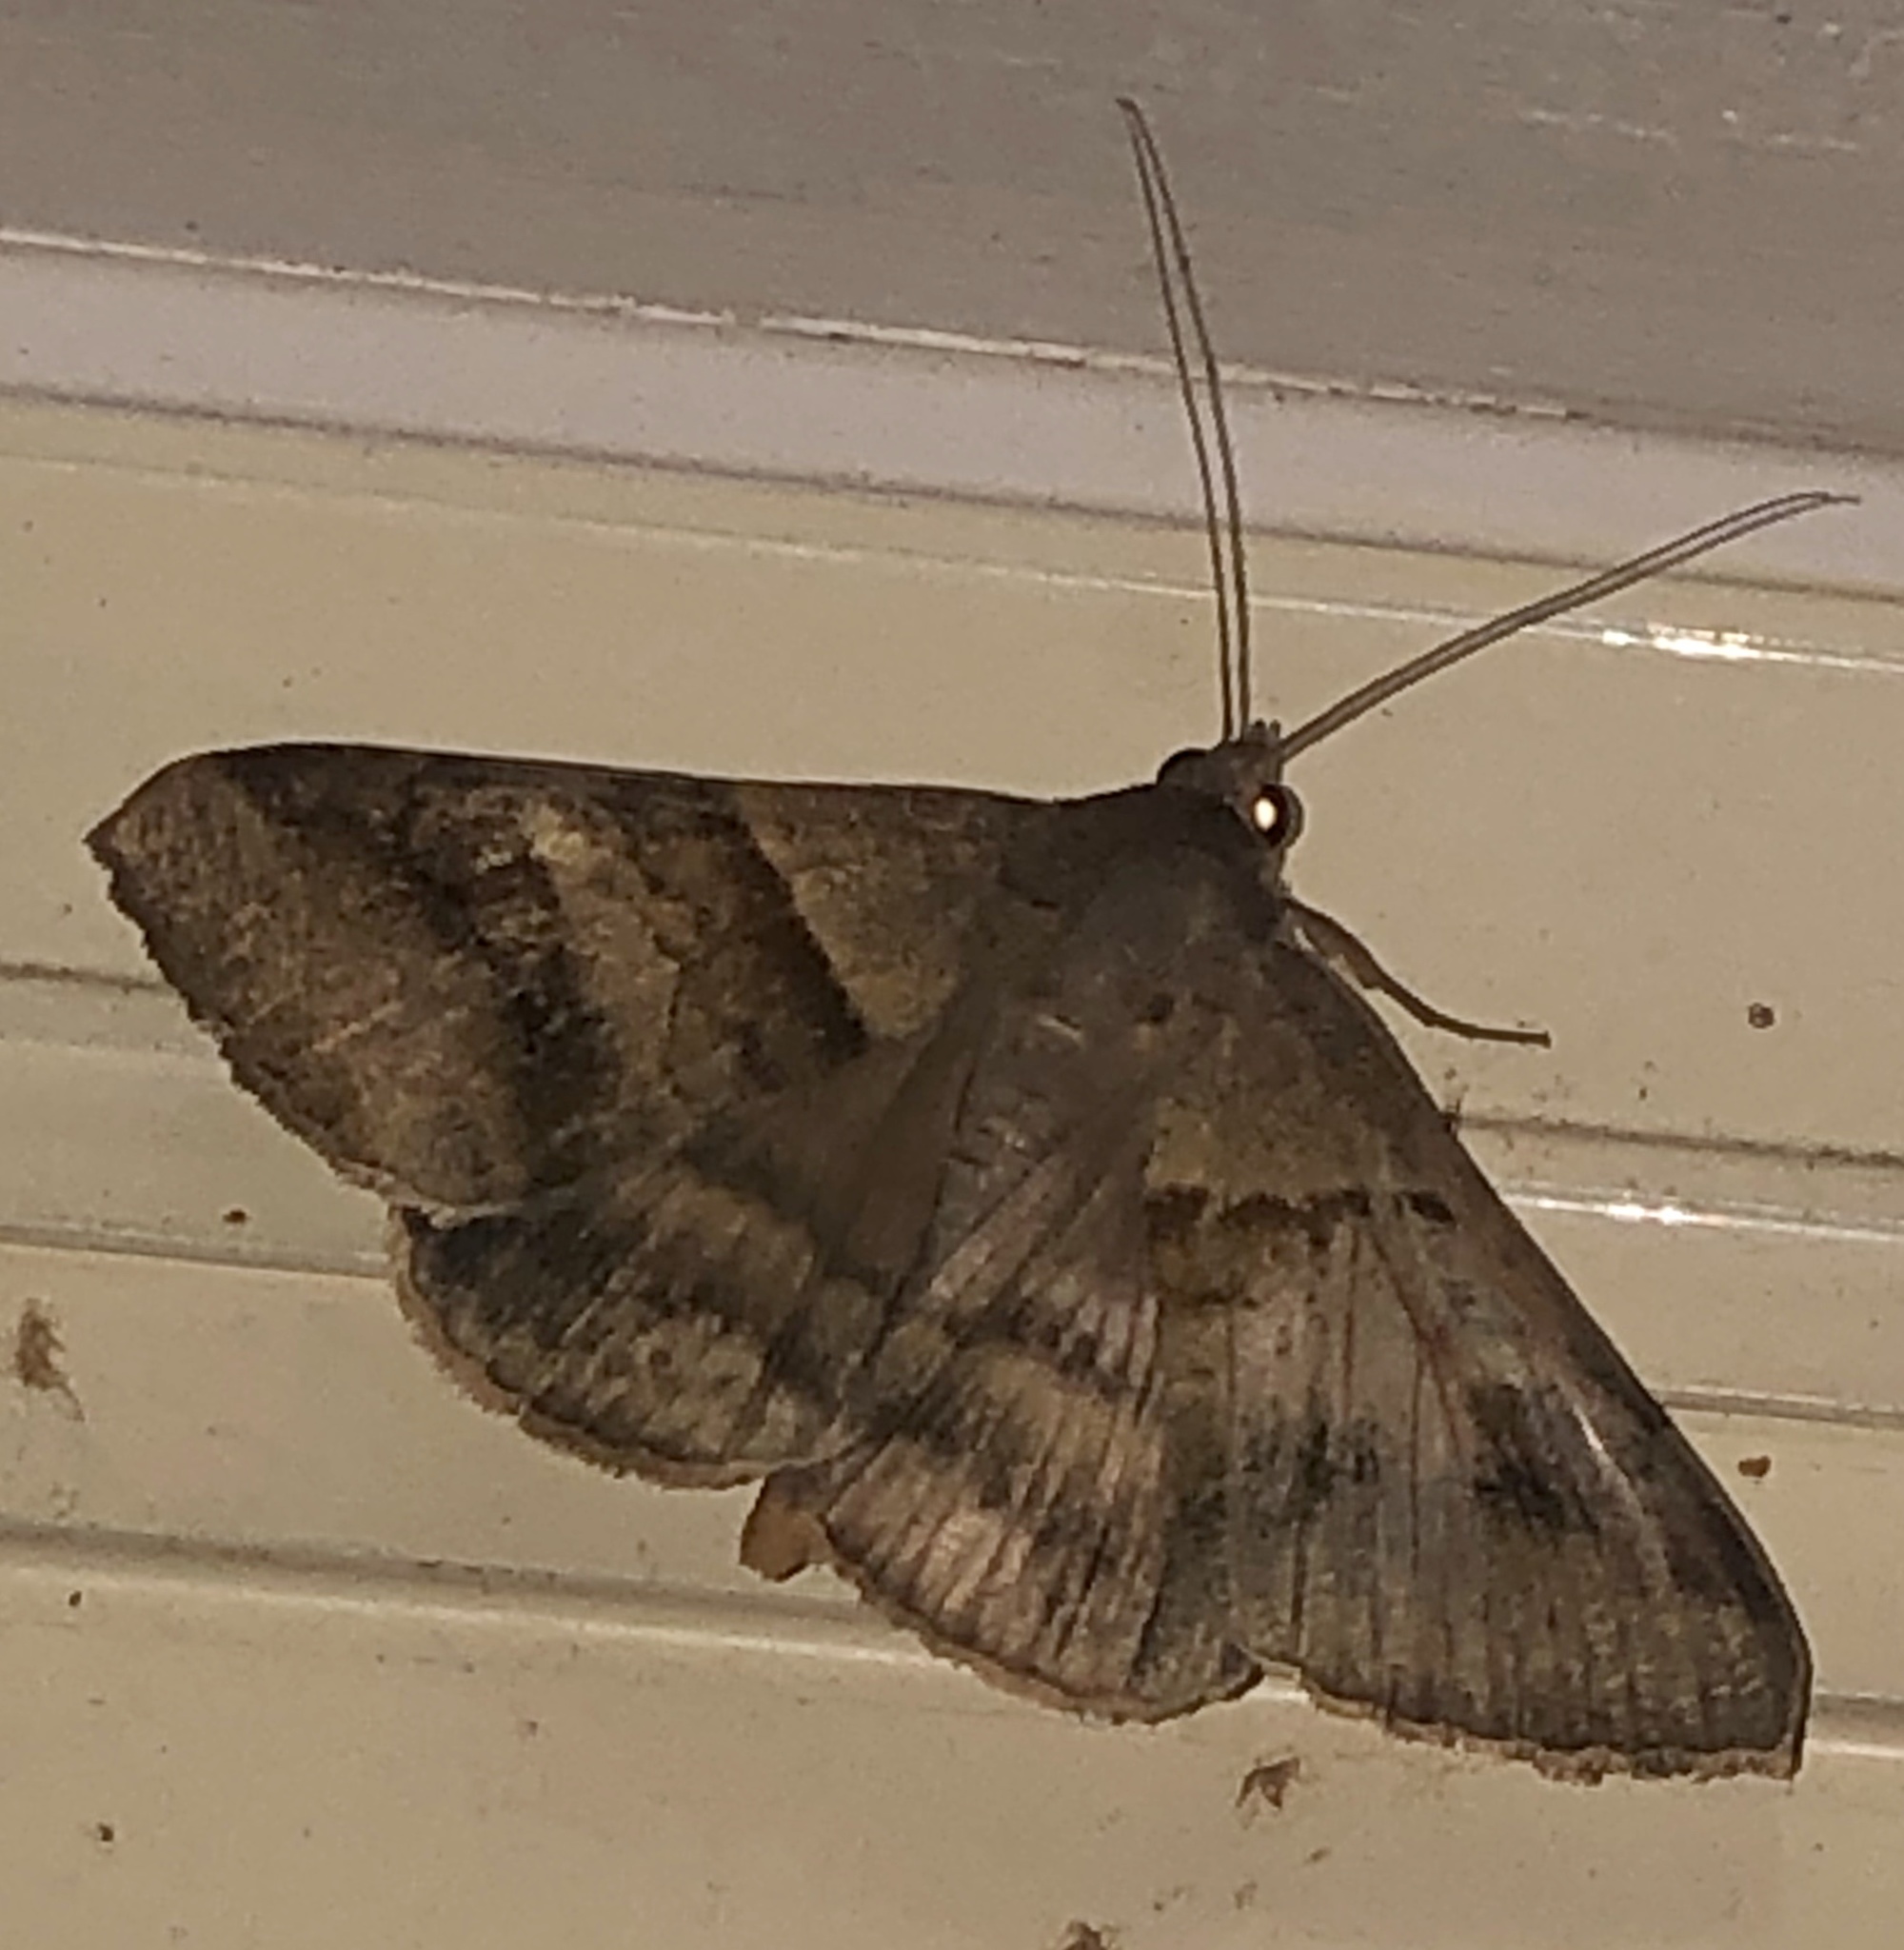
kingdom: Animalia
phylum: Arthropoda
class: Insecta
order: Lepidoptera
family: Erebidae
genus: Mocis
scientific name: Mocis trifasciata
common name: Triple-barred
